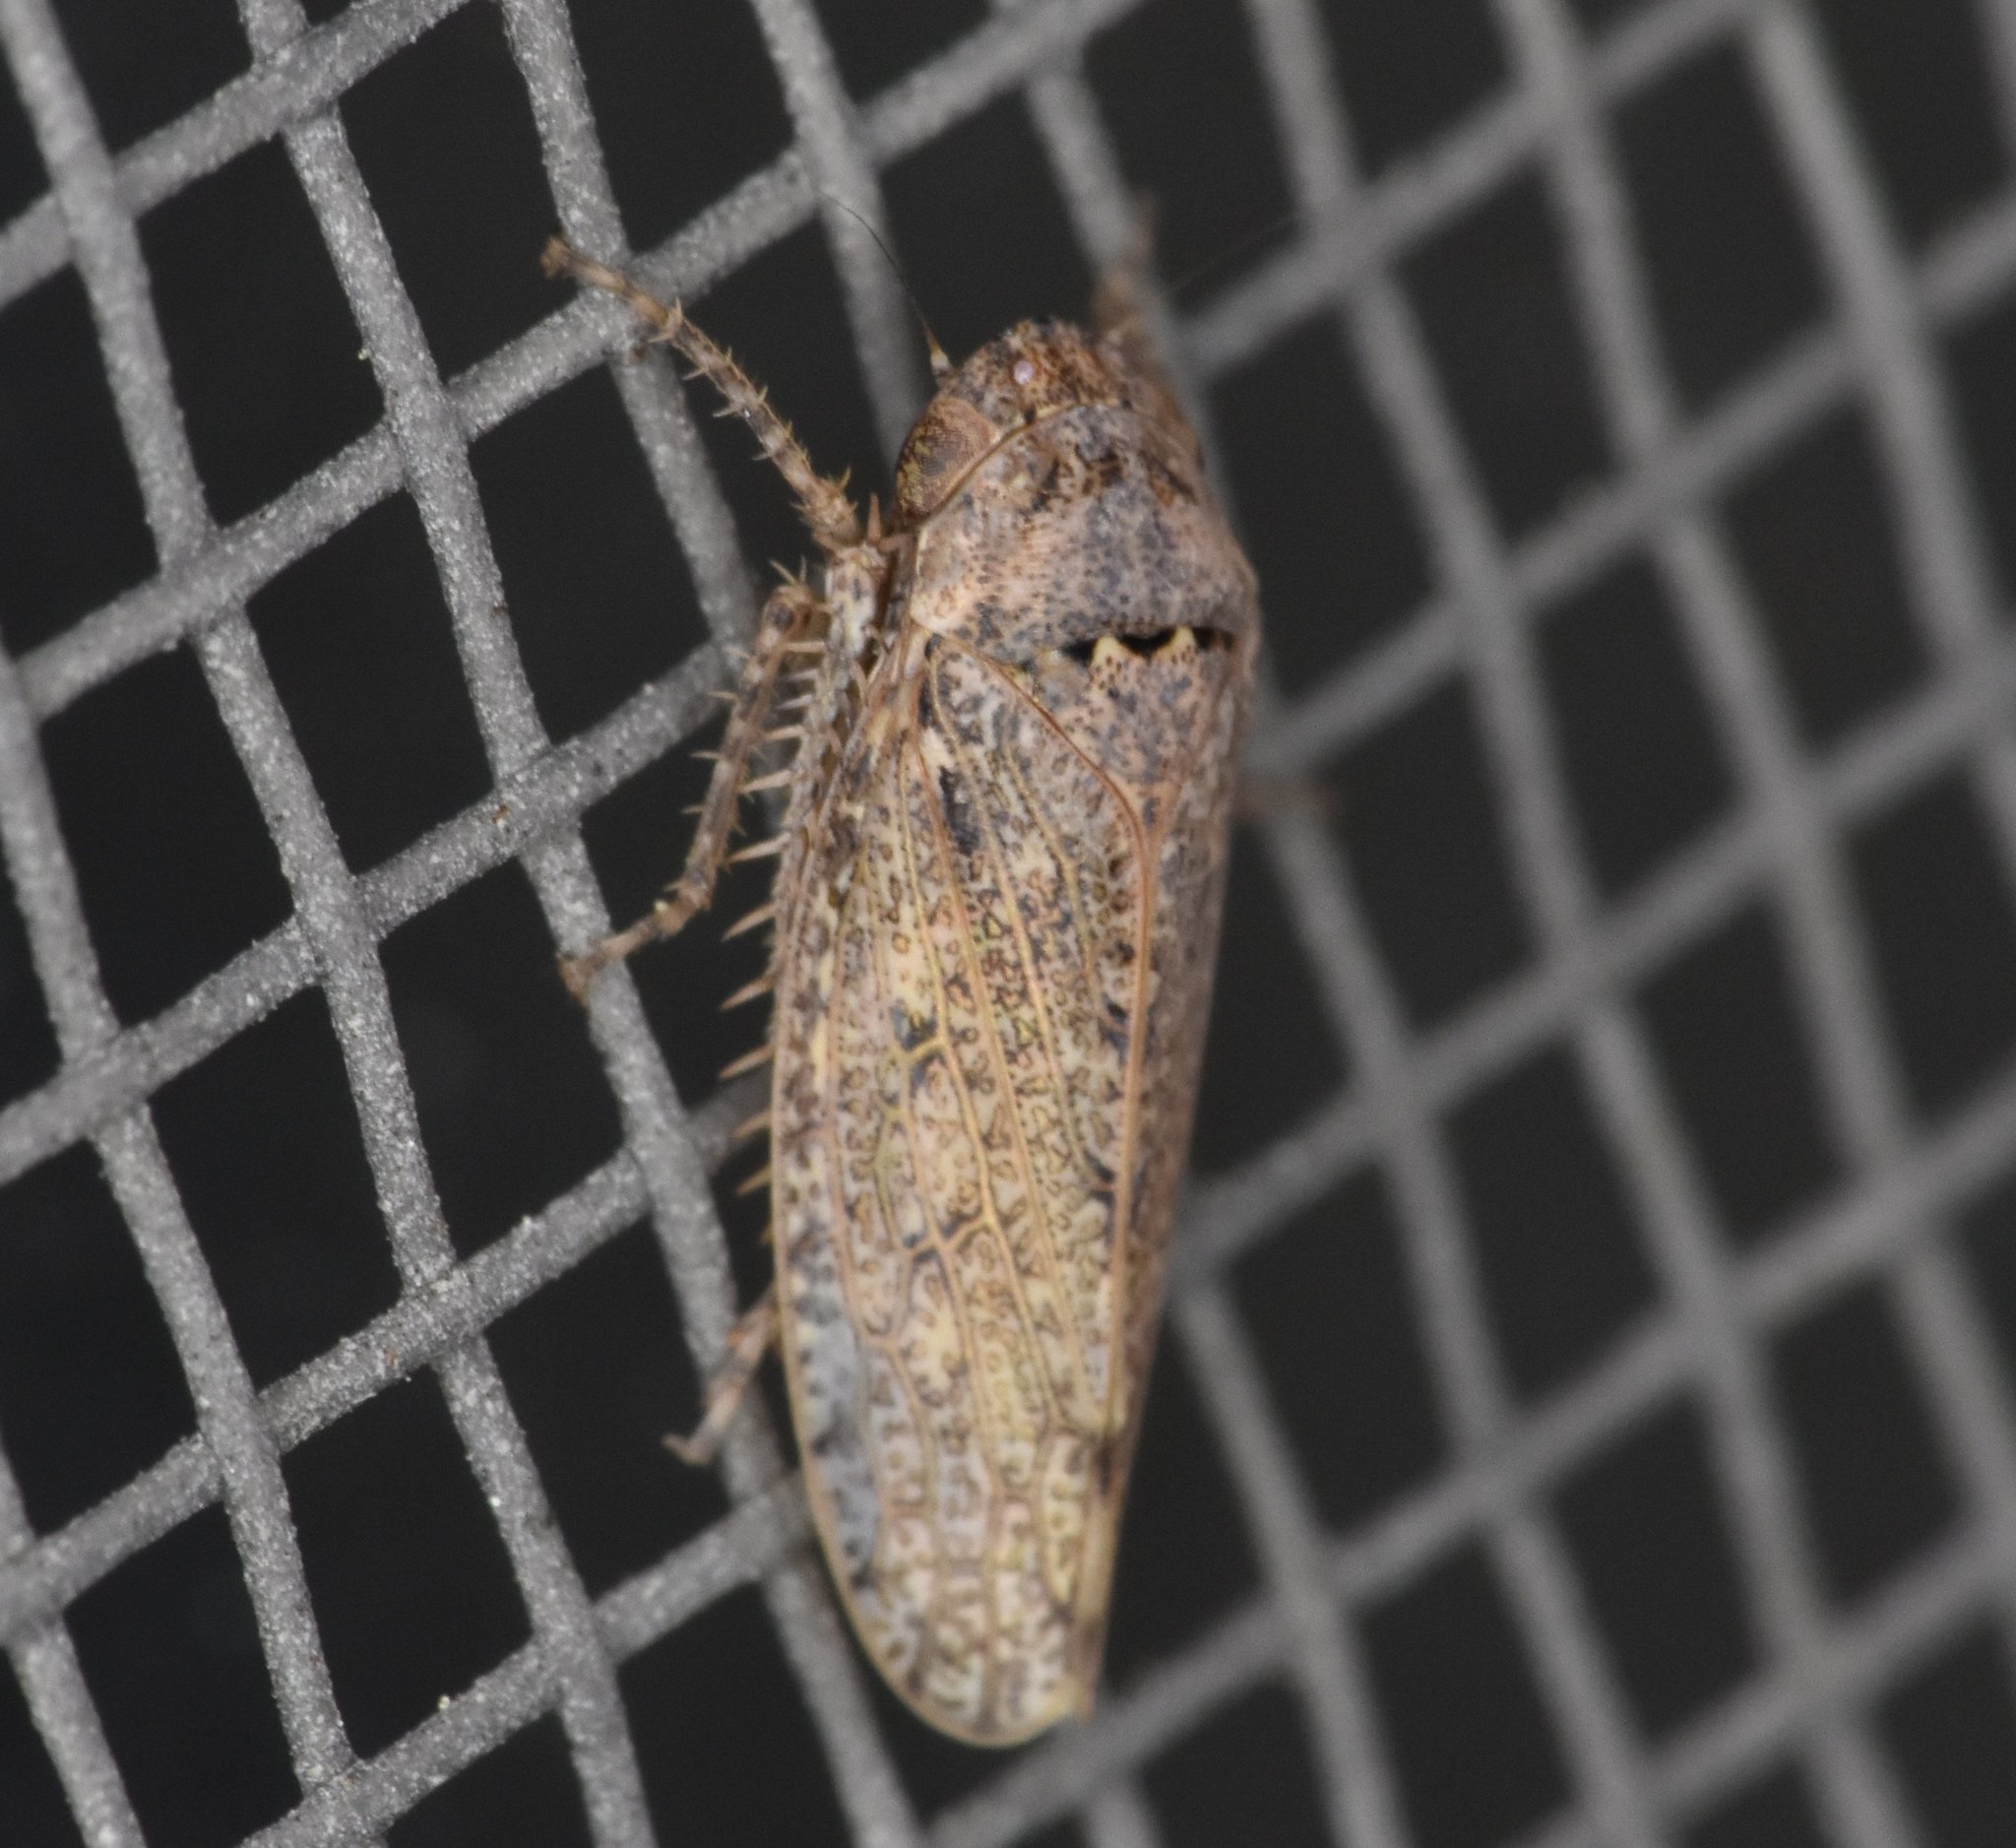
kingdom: Animalia
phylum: Arthropoda
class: Insecta
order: Hemiptera
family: Cicadellidae
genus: Curtara
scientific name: Curtara insularis
